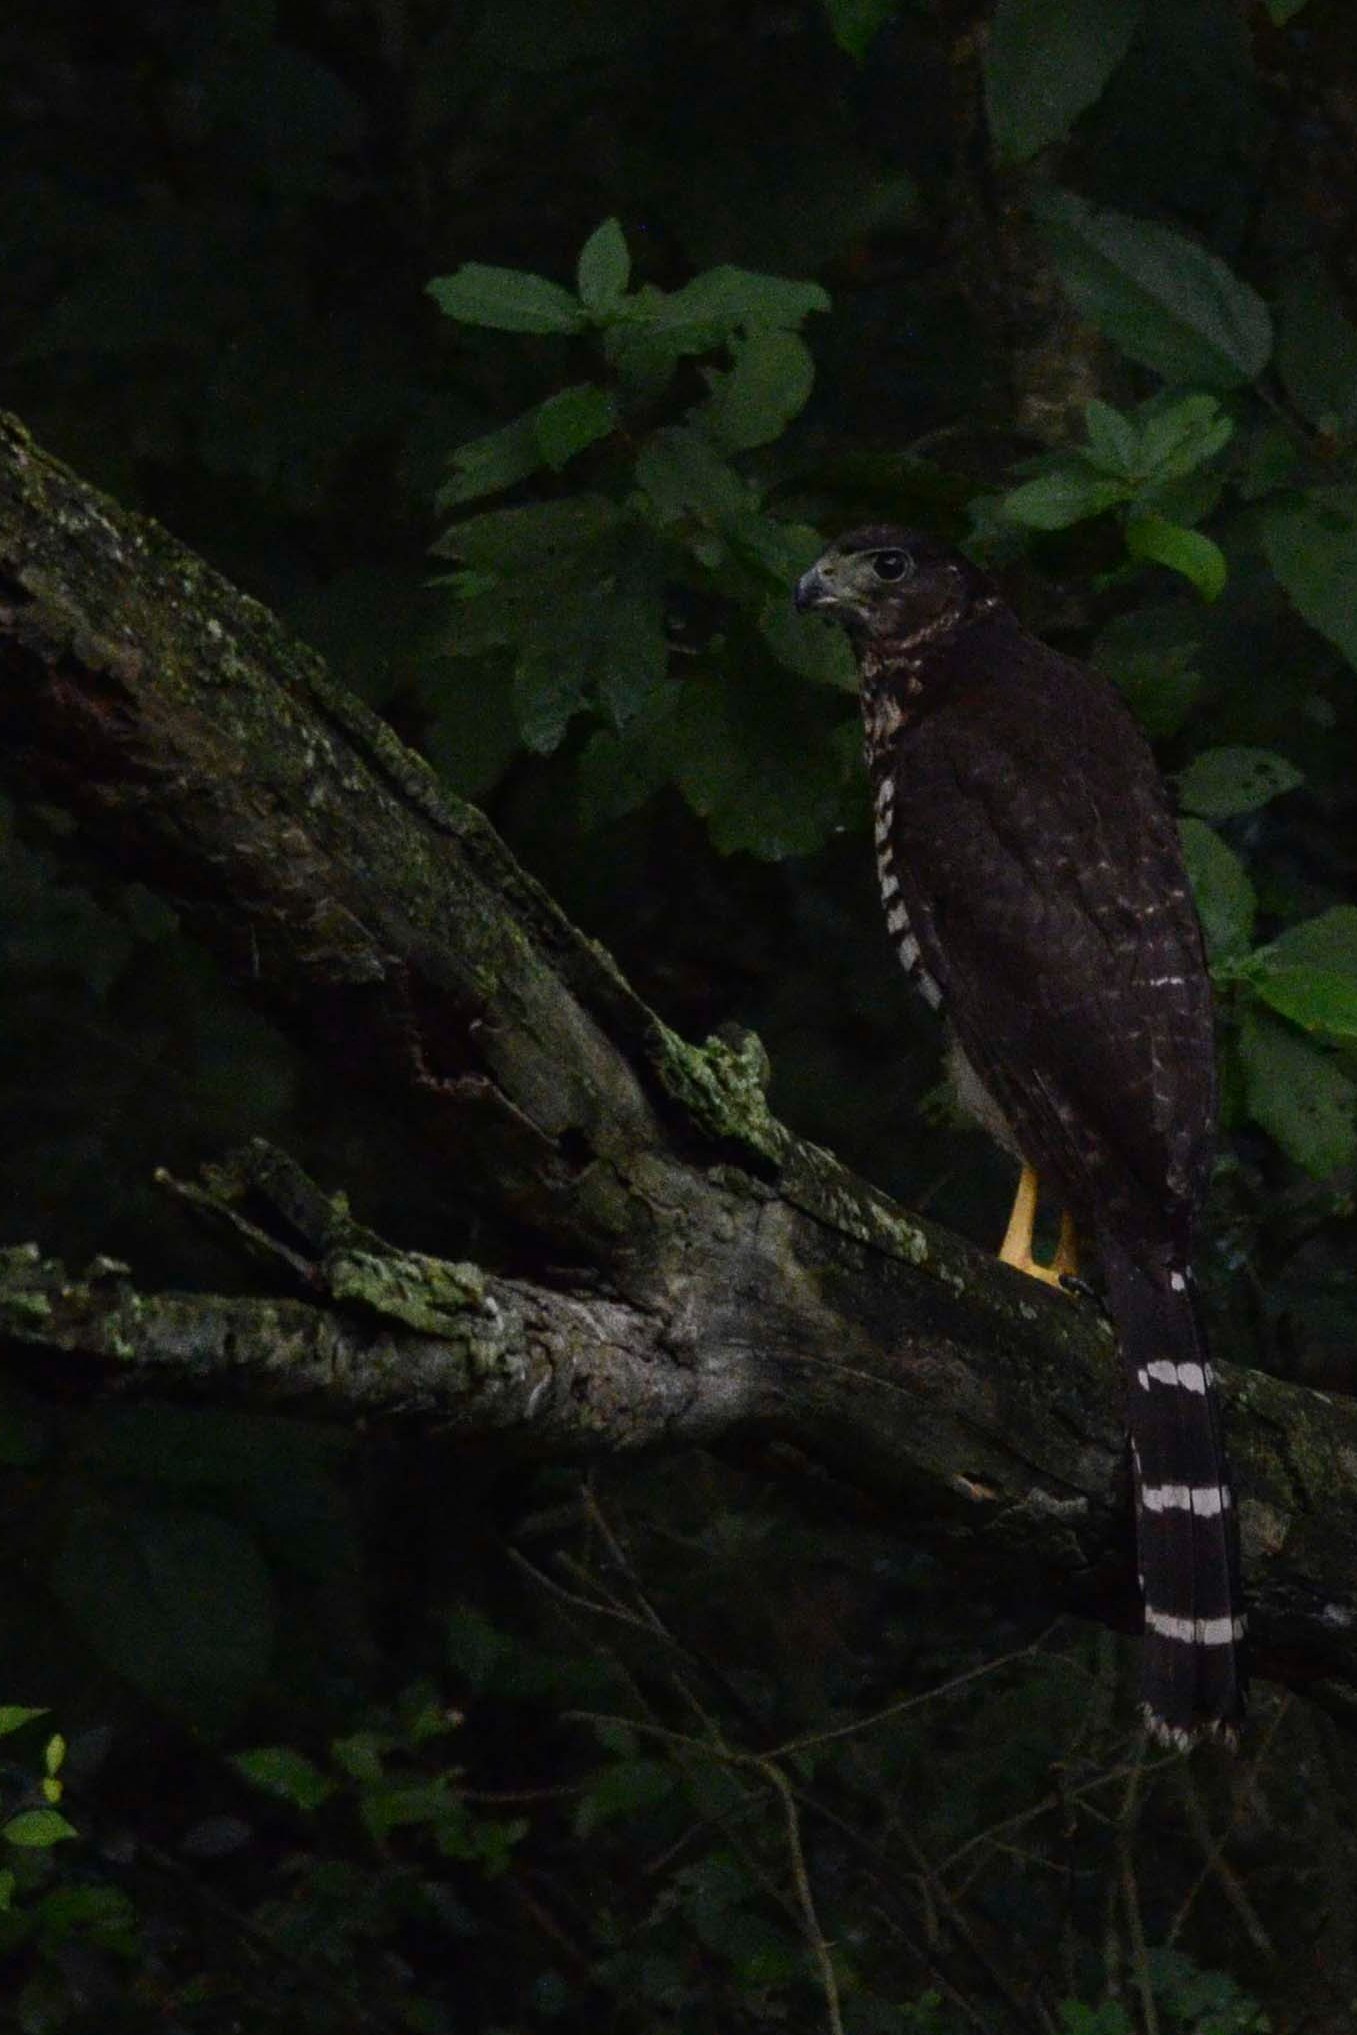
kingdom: Animalia
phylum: Chordata
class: Aves
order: Falconiformes
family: Falconidae
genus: Micrastur
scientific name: Micrastur semitorquatus
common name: Collared forest-falcon
